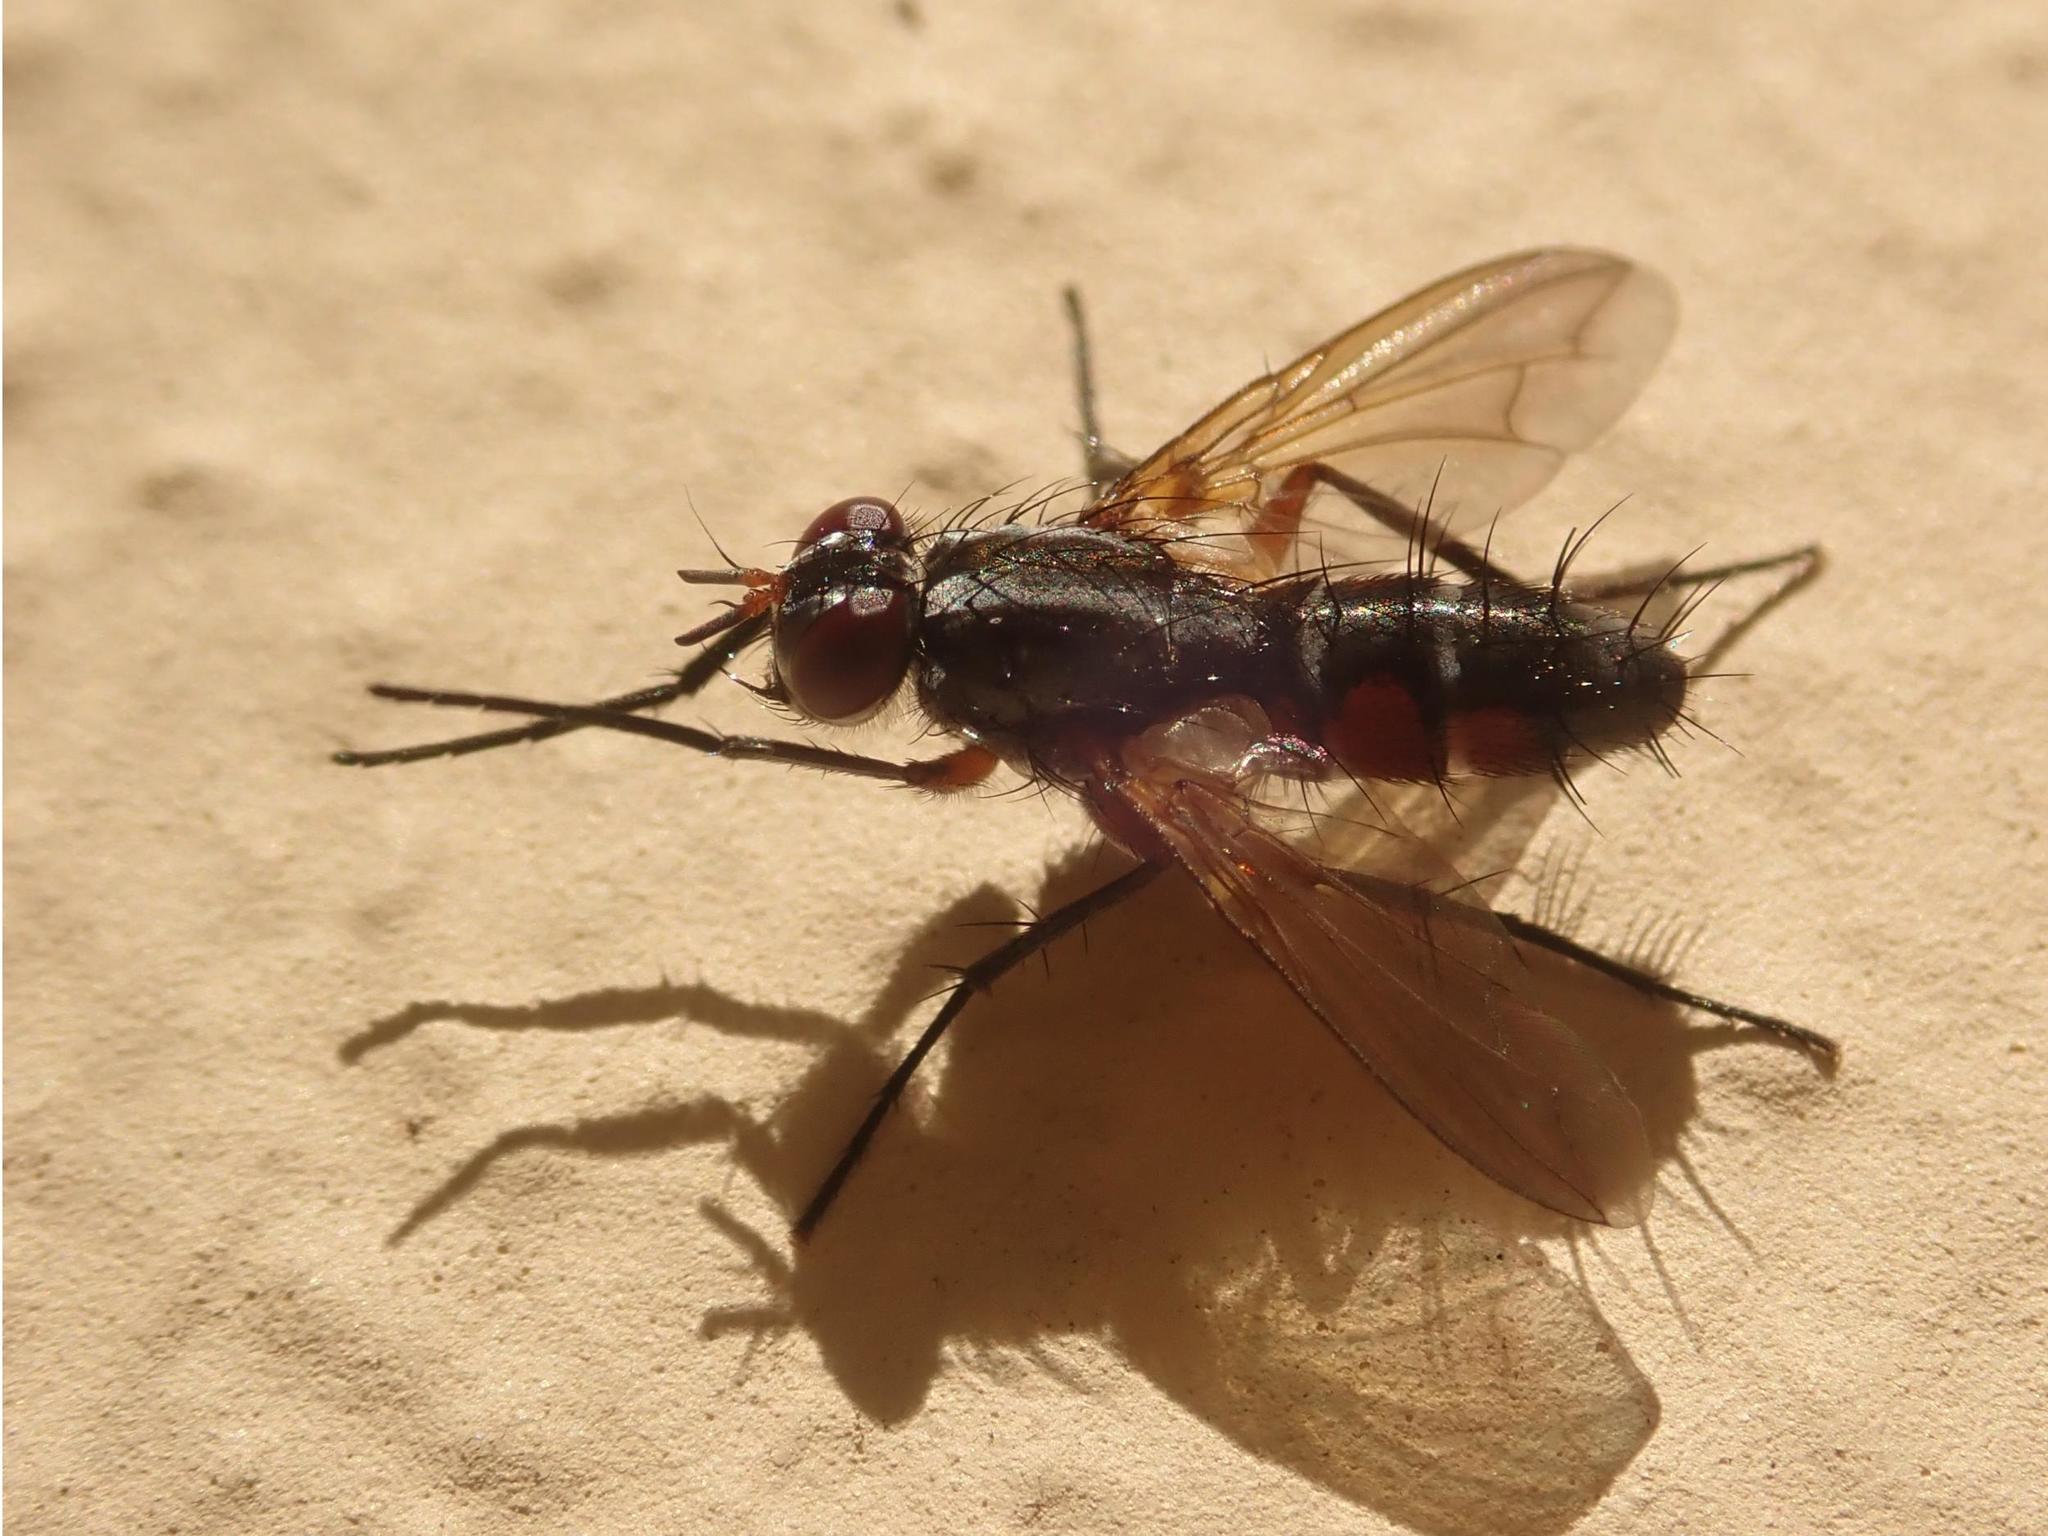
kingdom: Animalia
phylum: Arthropoda
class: Insecta
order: Diptera
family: Tachinidae
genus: Mintho
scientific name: Mintho rufiventris
